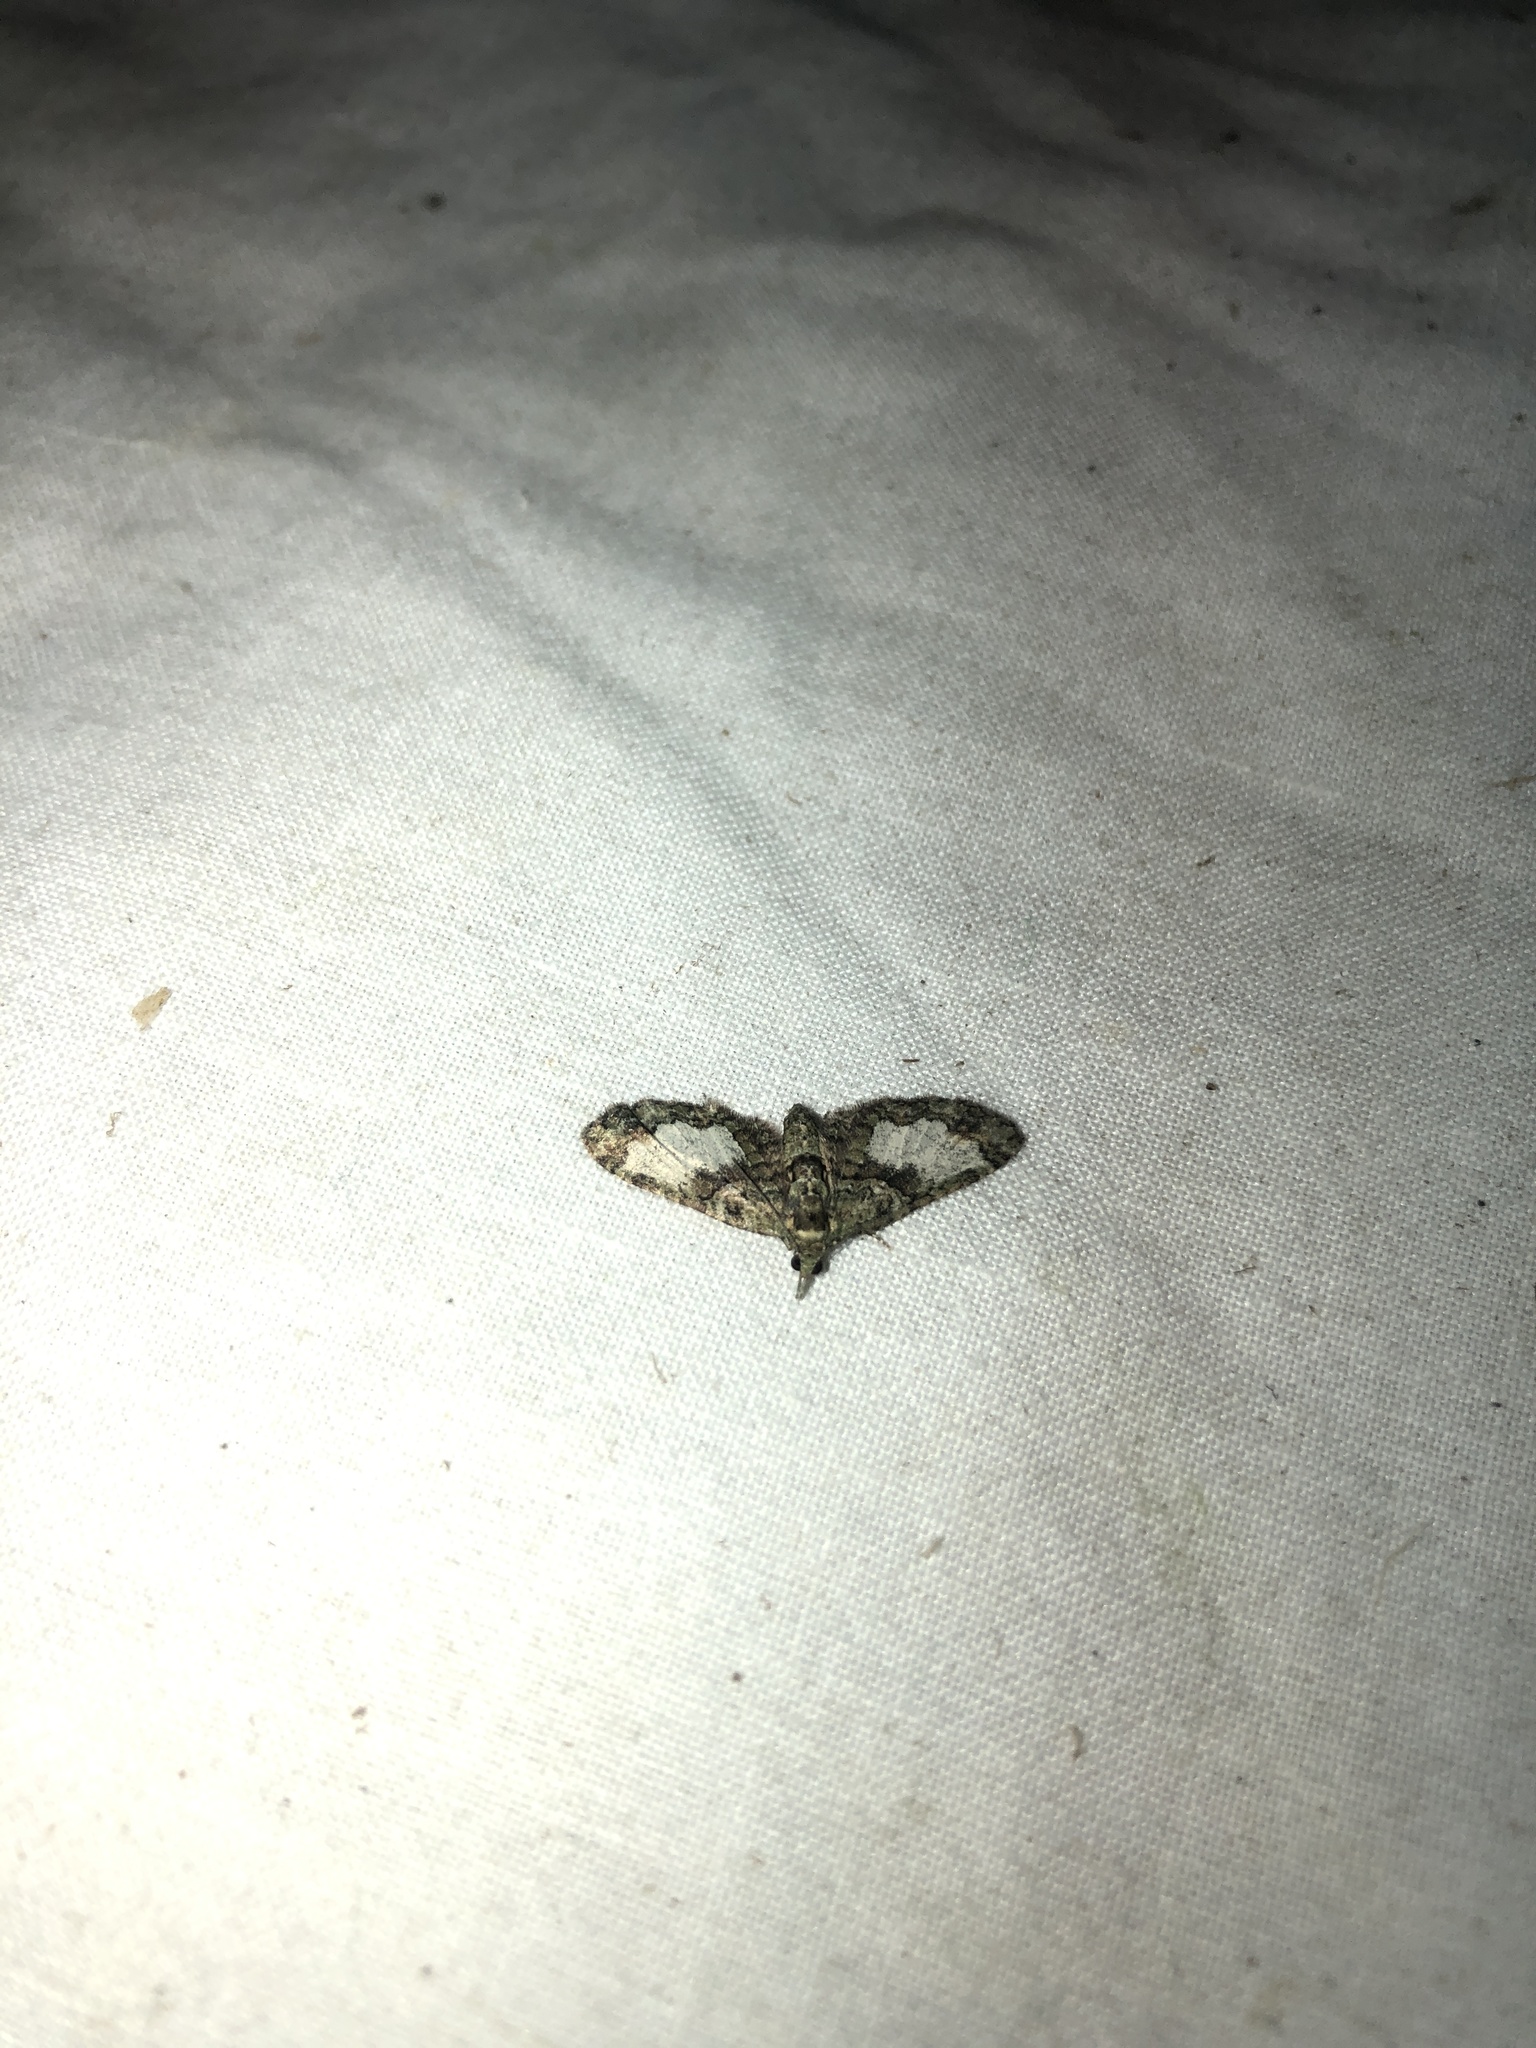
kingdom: Animalia
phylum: Arthropoda
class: Insecta
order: Lepidoptera
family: Geometridae
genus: Idaea
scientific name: Idaea mutanda
